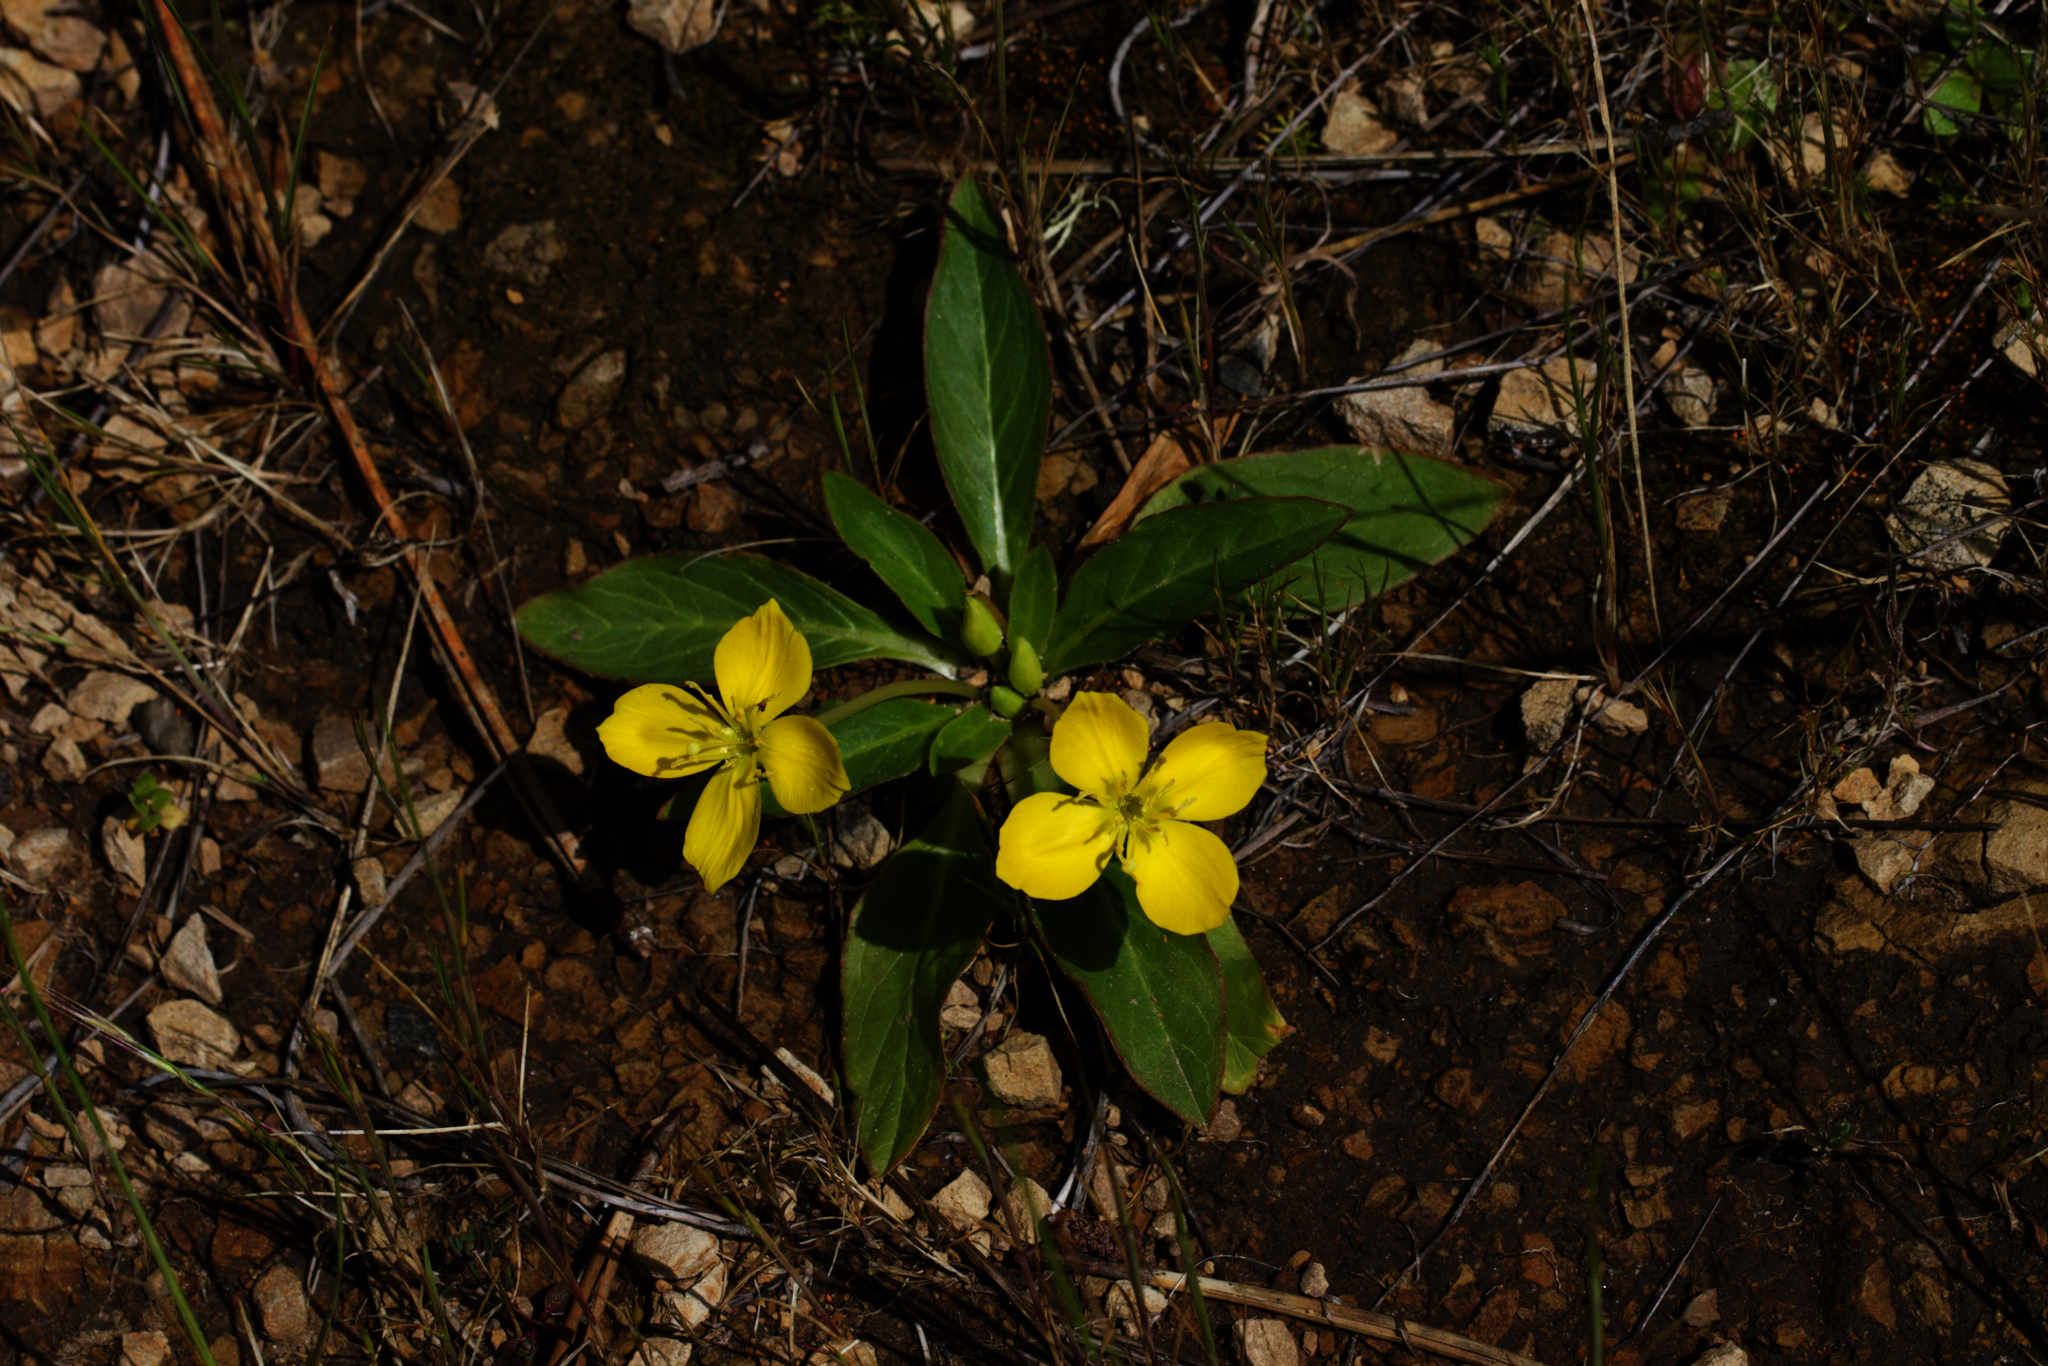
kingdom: Plantae
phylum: Tracheophyta
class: Magnoliopsida
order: Myrtales
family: Onagraceae
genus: Taraxia
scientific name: Taraxia ovata
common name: Goldeneggs
